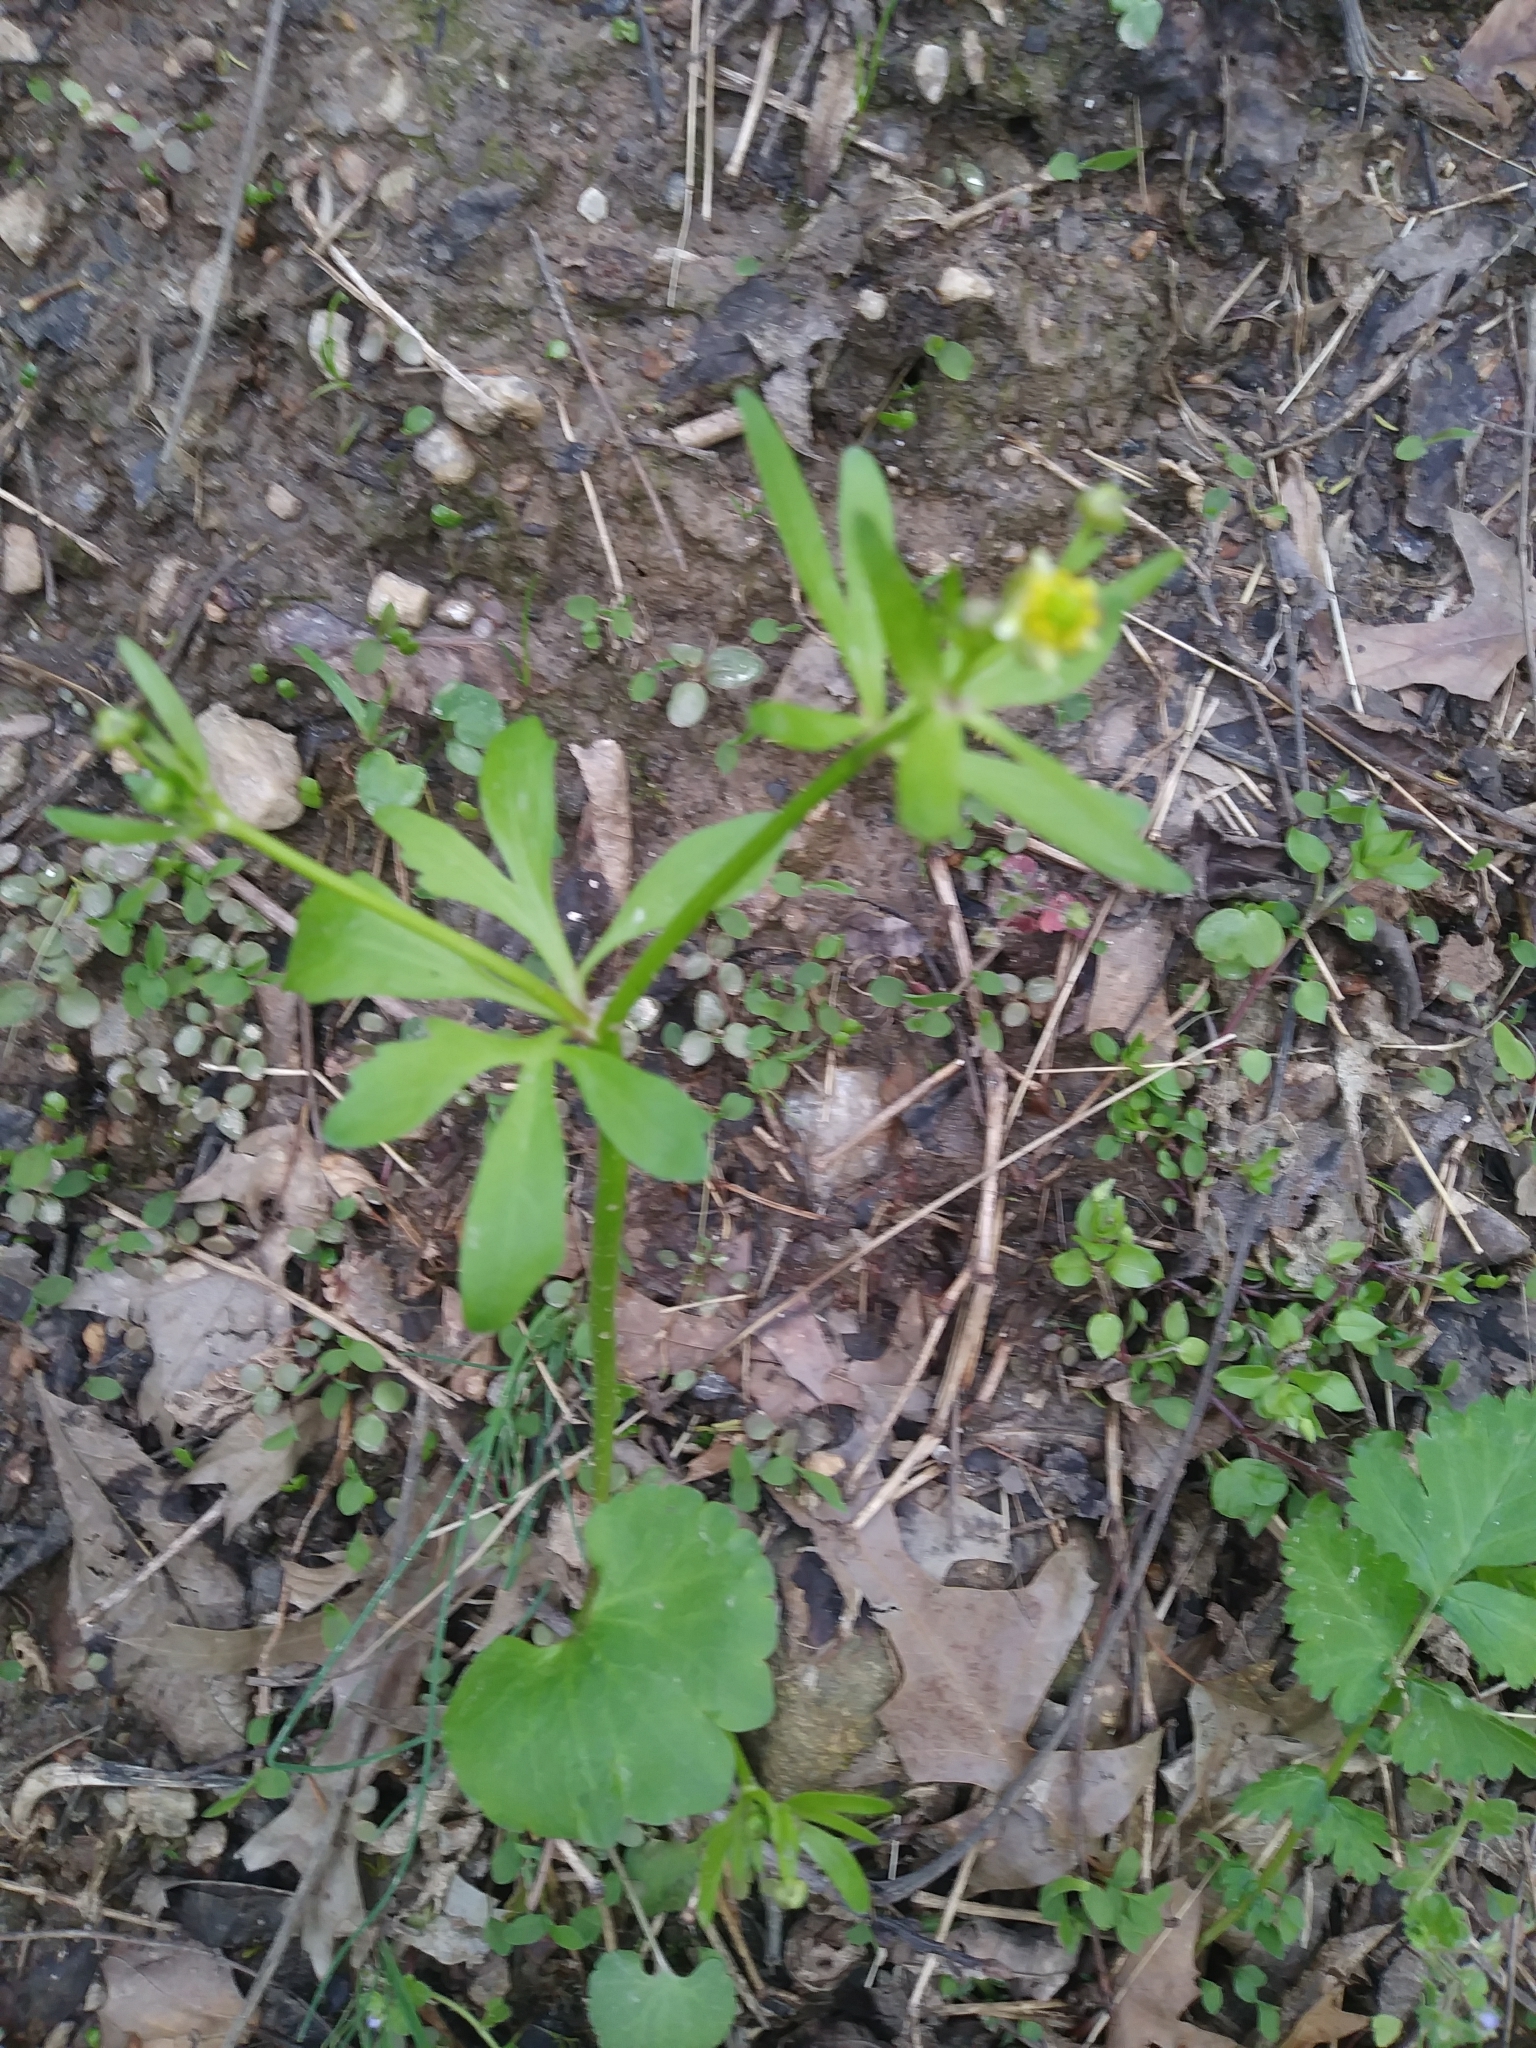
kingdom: Plantae
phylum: Tracheophyta
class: Magnoliopsida
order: Ranunculales
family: Ranunculaceae
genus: Ranunculus
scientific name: Ranunculus abortivus
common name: Early wood buttercup
